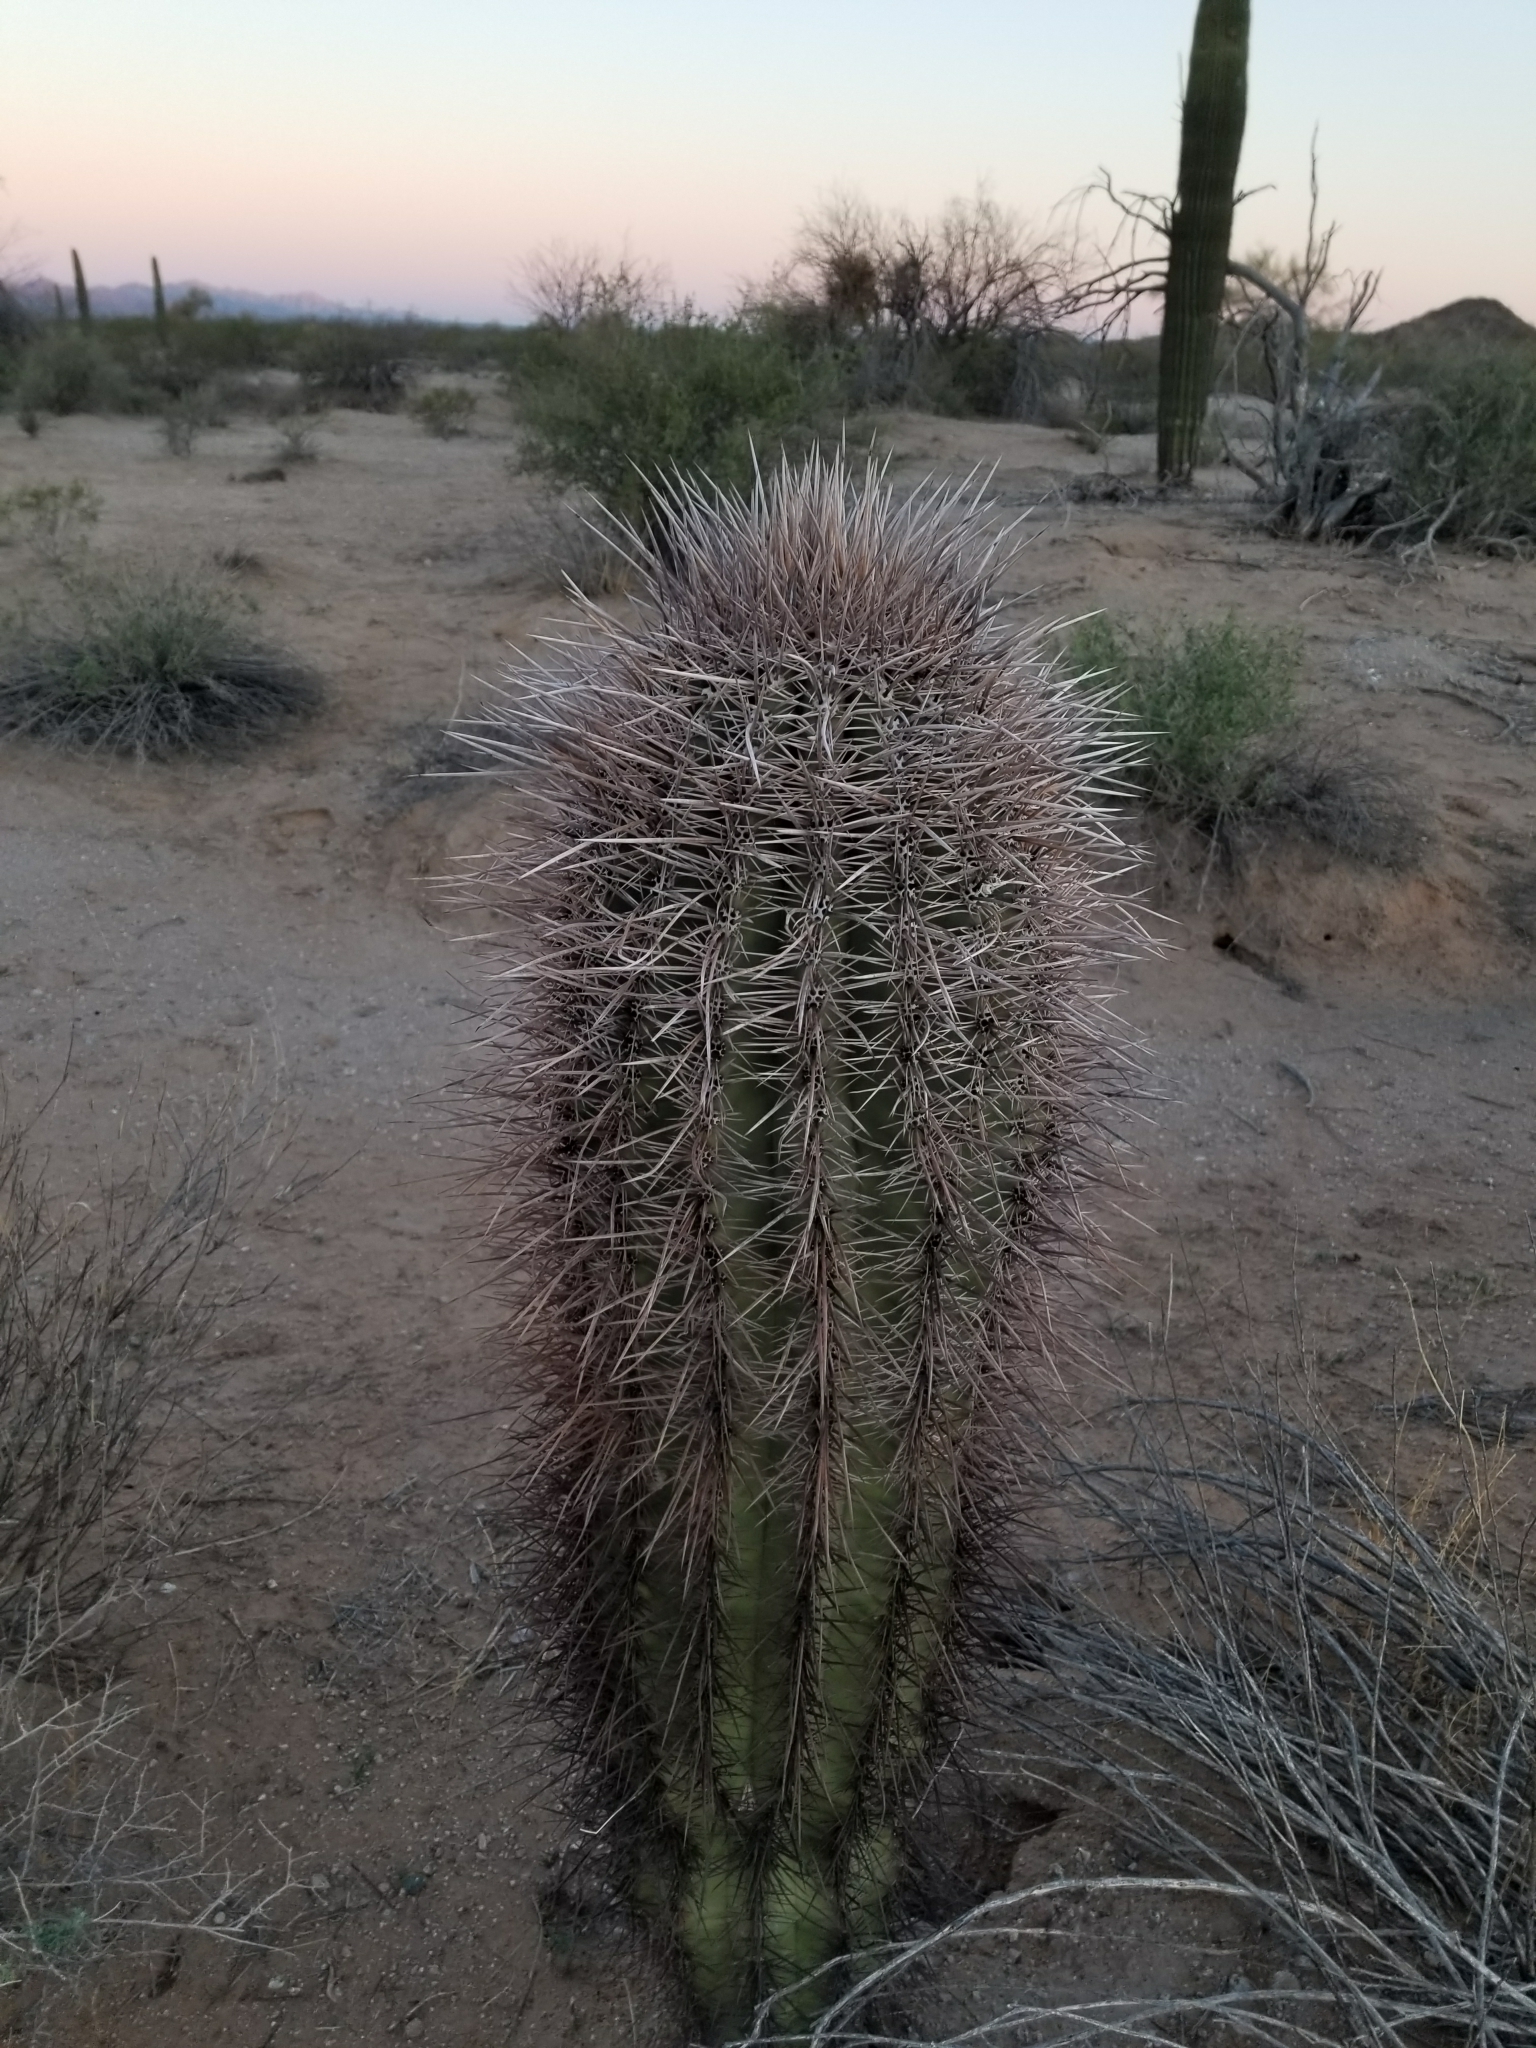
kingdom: Plantae
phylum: Tracheophyta
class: Magnoliopsida
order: Caryophyllales
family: Cactaceae
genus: Carnegiea
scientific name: Carnegiea gigantea
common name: Saguaro
